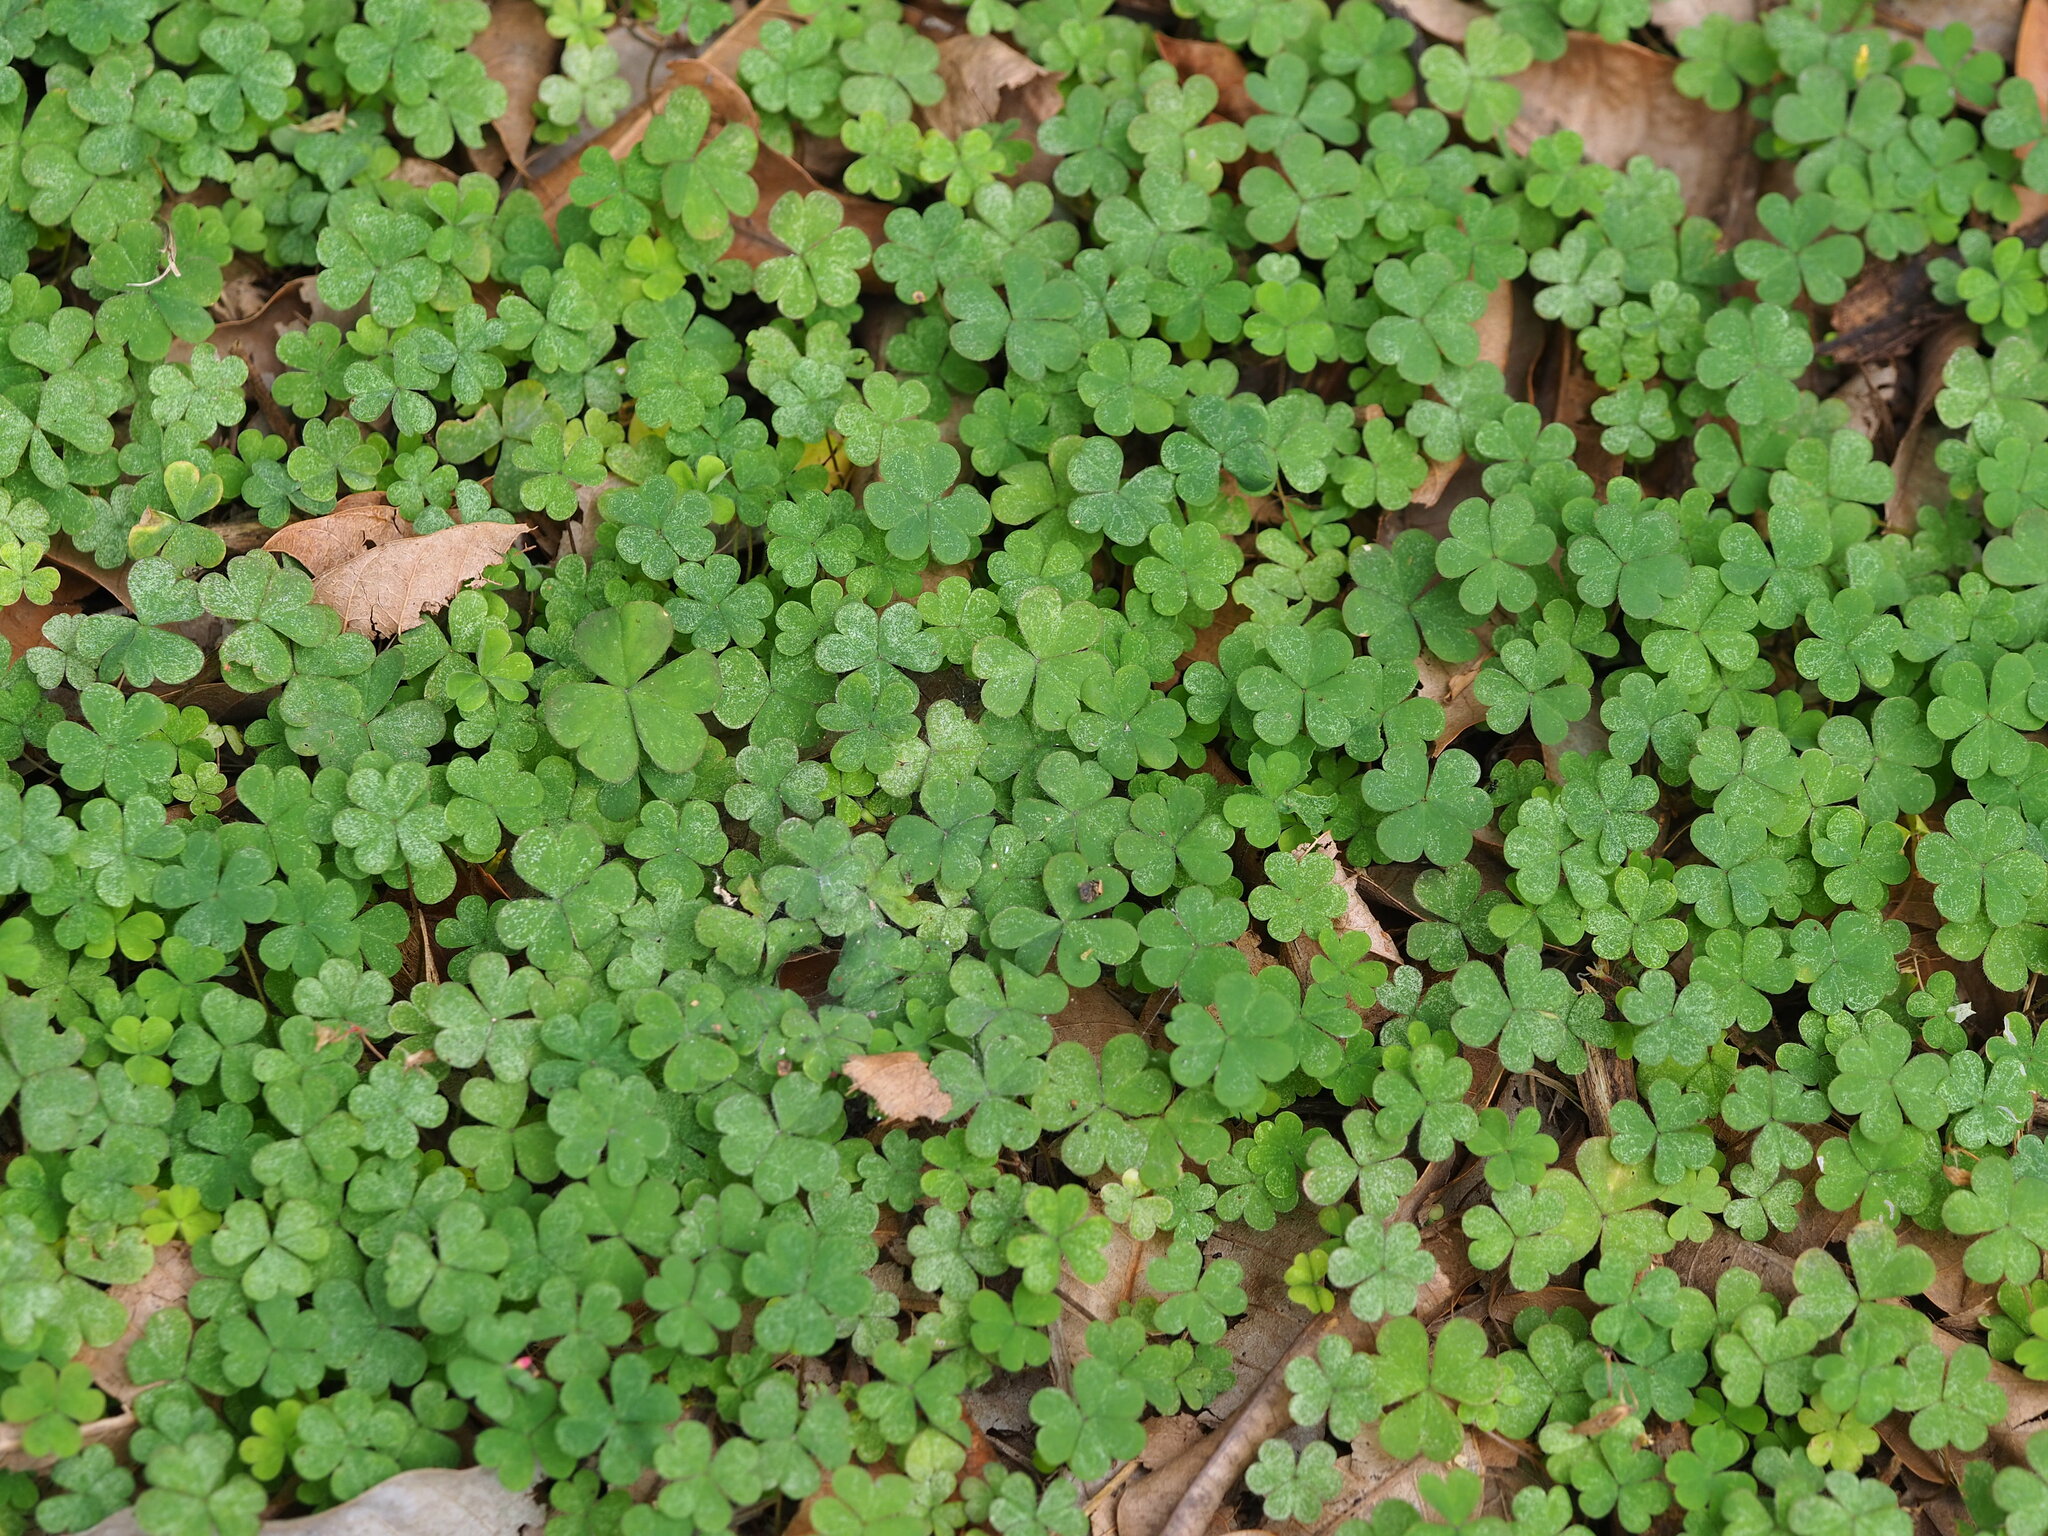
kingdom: Plantae
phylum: Tracheophyta
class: Magnoliopsida
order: Oxalidales
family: Oxalidaceae
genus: Oxalis
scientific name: Oxalis corniculata
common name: Procumbent yellow-sorrel
